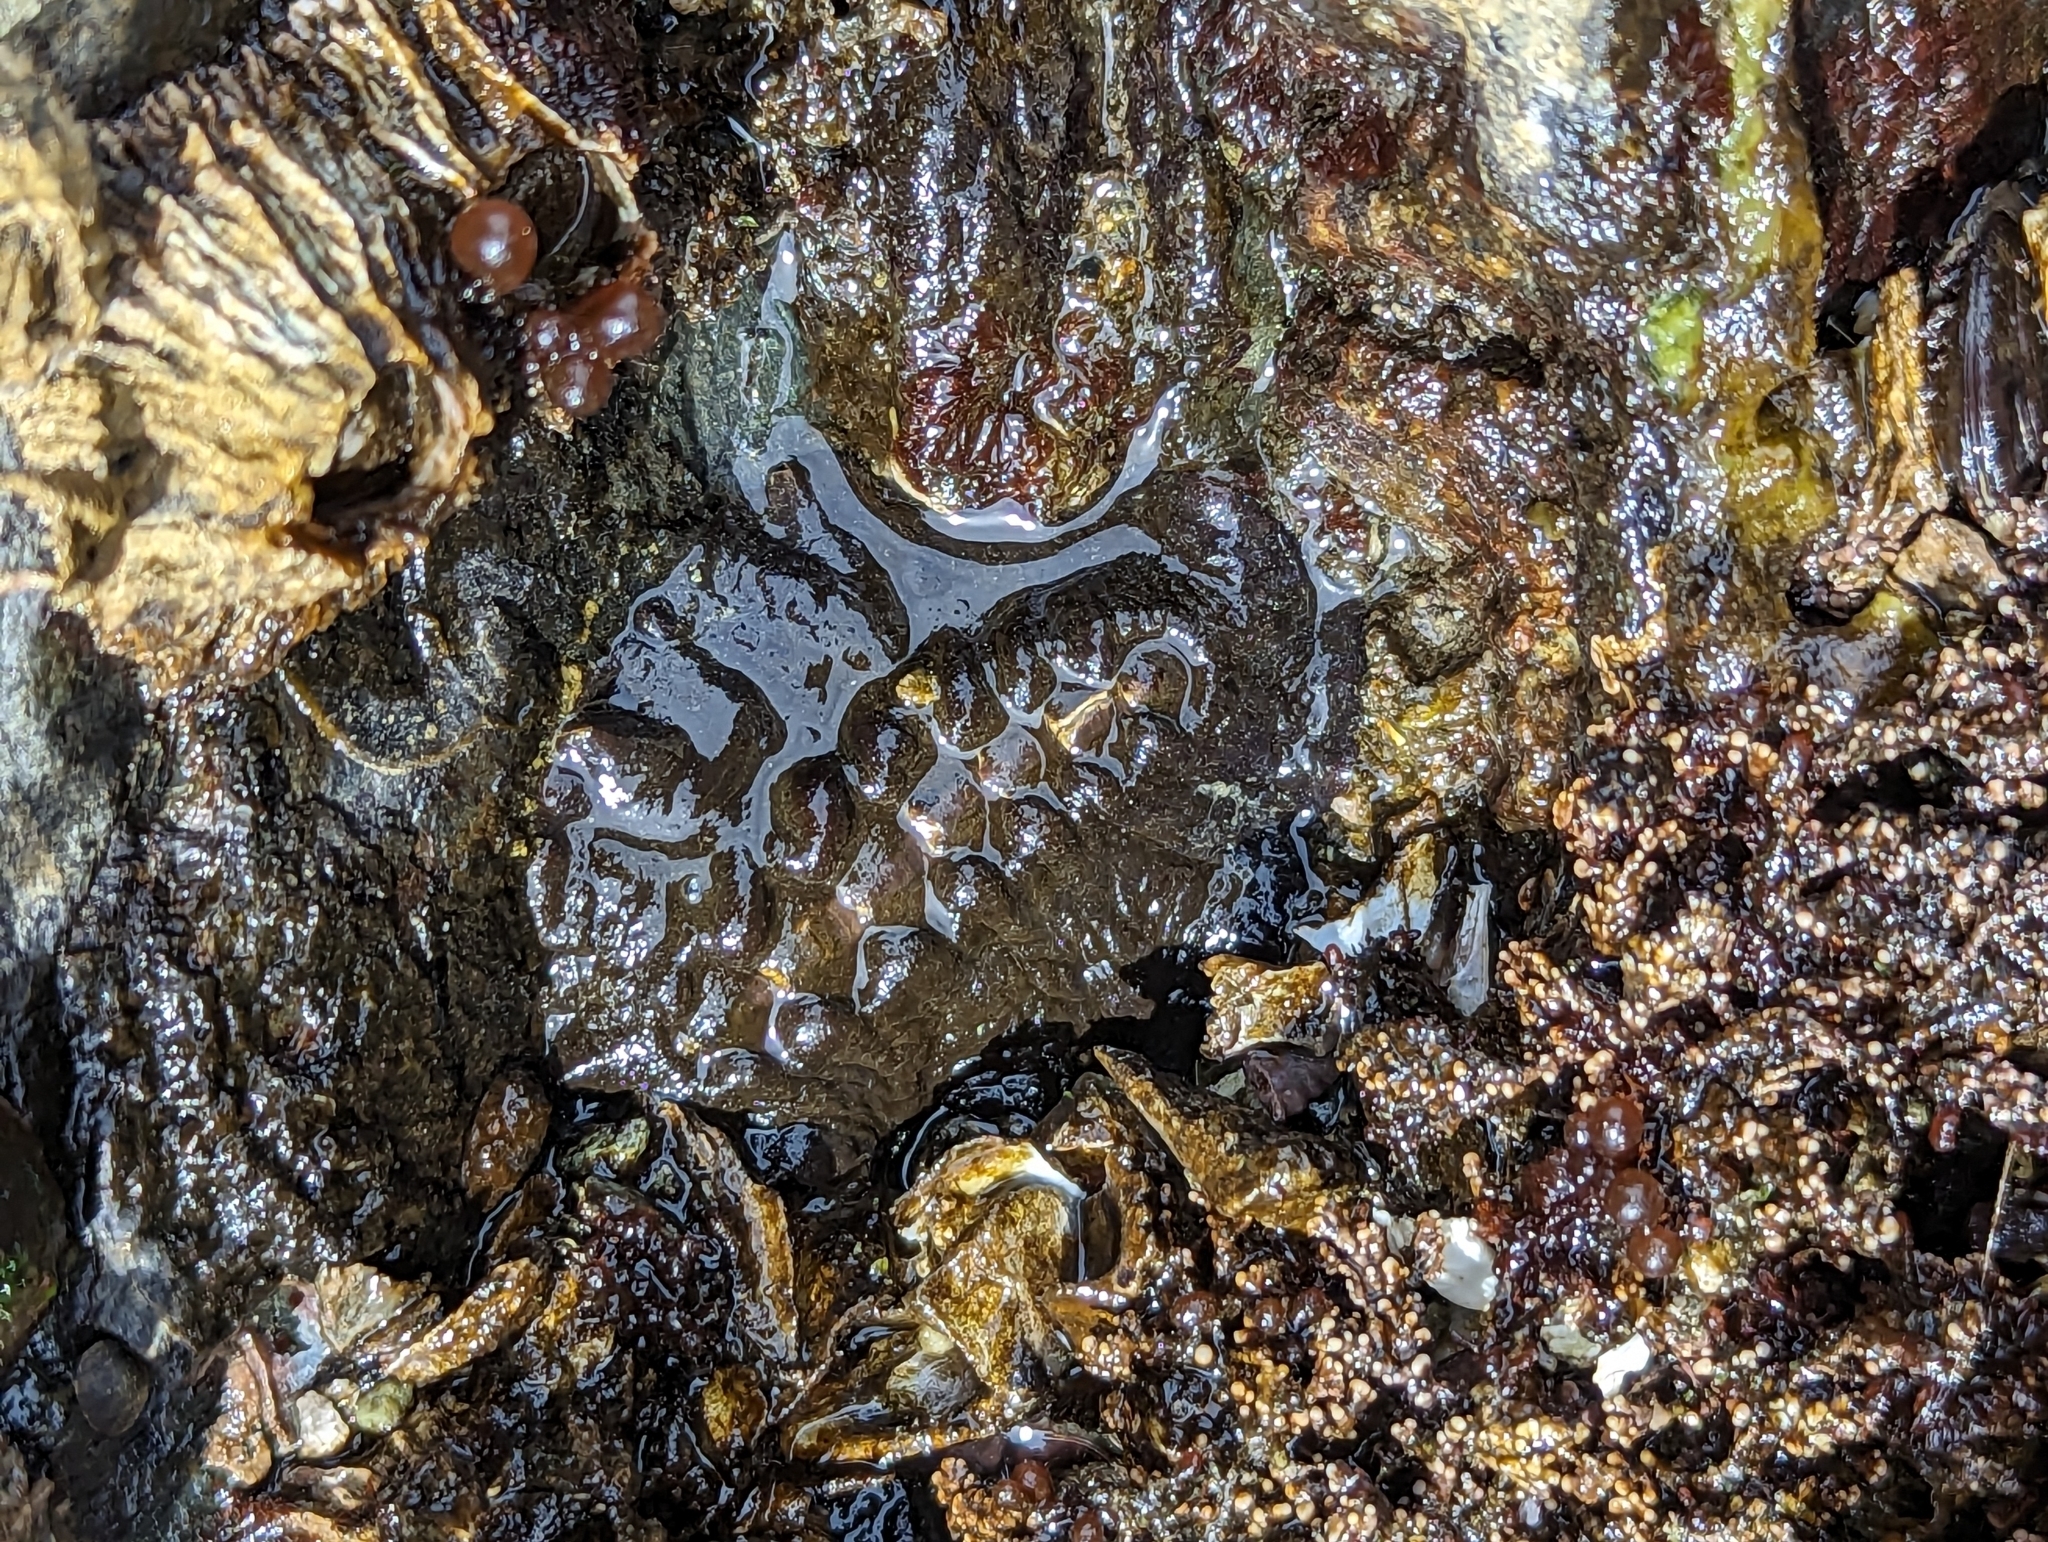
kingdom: Animalia
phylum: Mollusca
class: Polyplacophora
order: Chitonida
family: Mopaliidae
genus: Katharina
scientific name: Katharina tunicata
